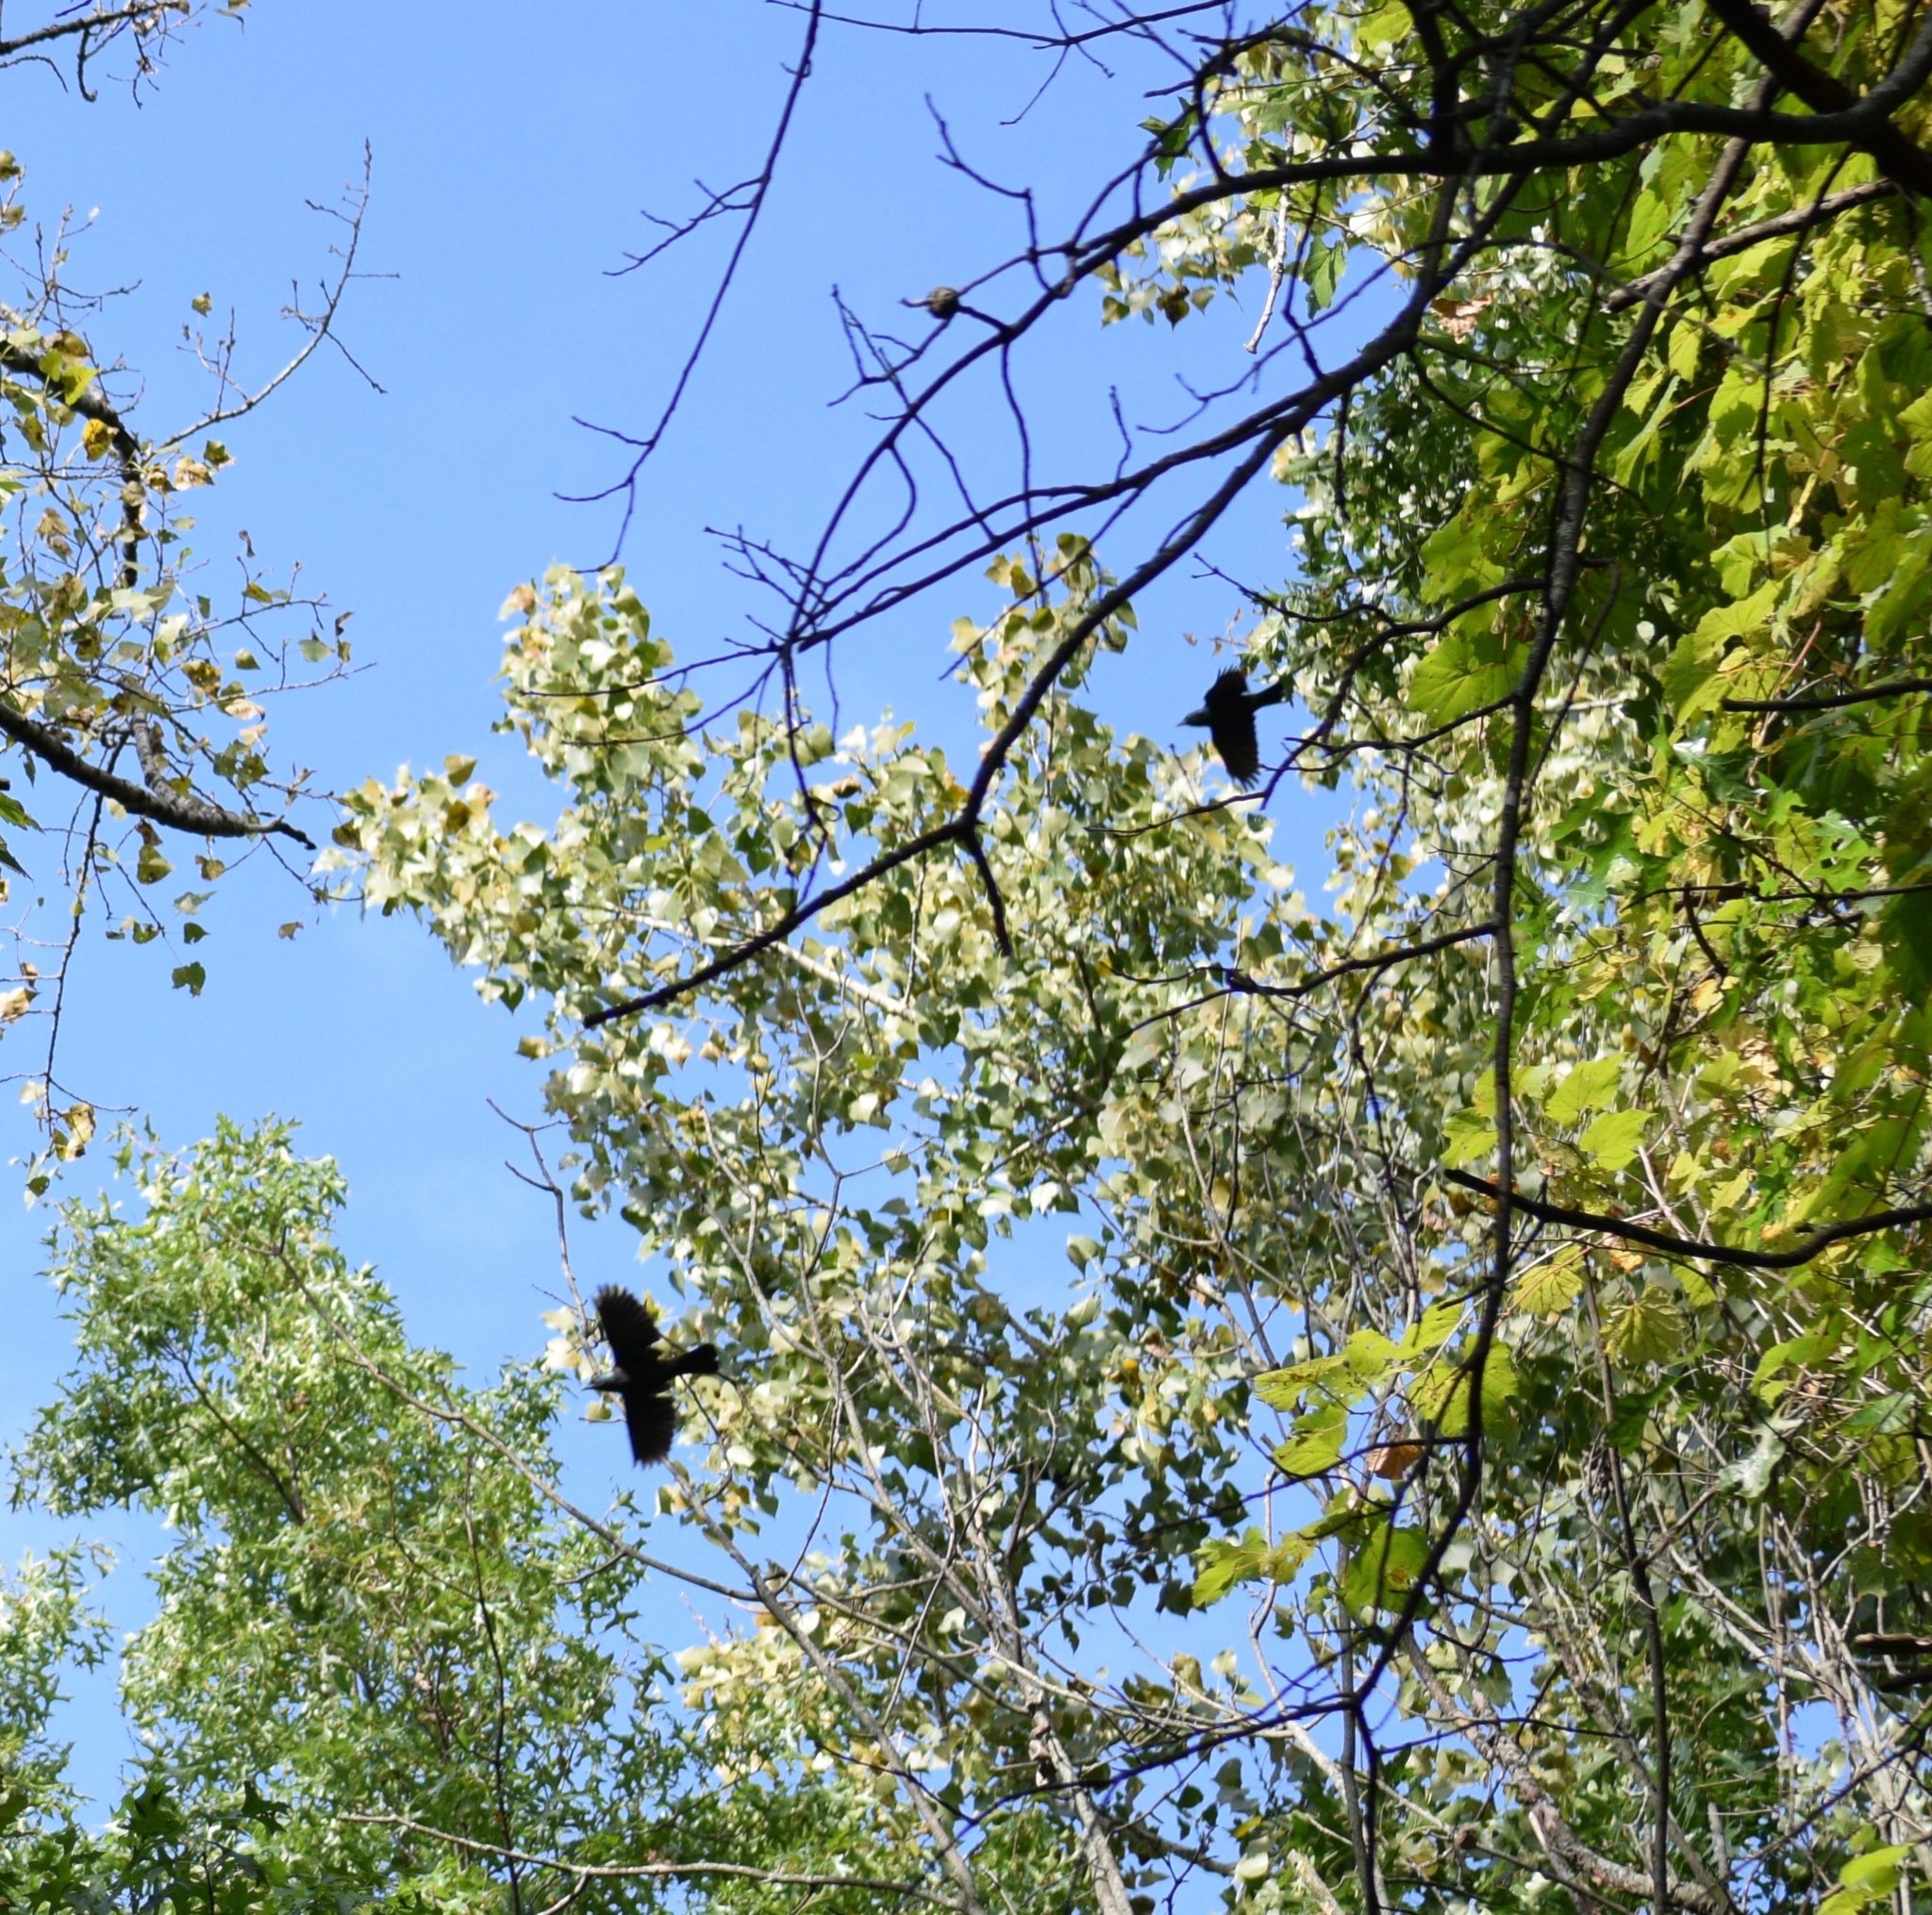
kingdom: Animalia
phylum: Chordata
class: Aves
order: Passeriformes
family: Icteridae
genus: Quiscalus
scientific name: Quiscalus quiscula
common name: Common grackle
